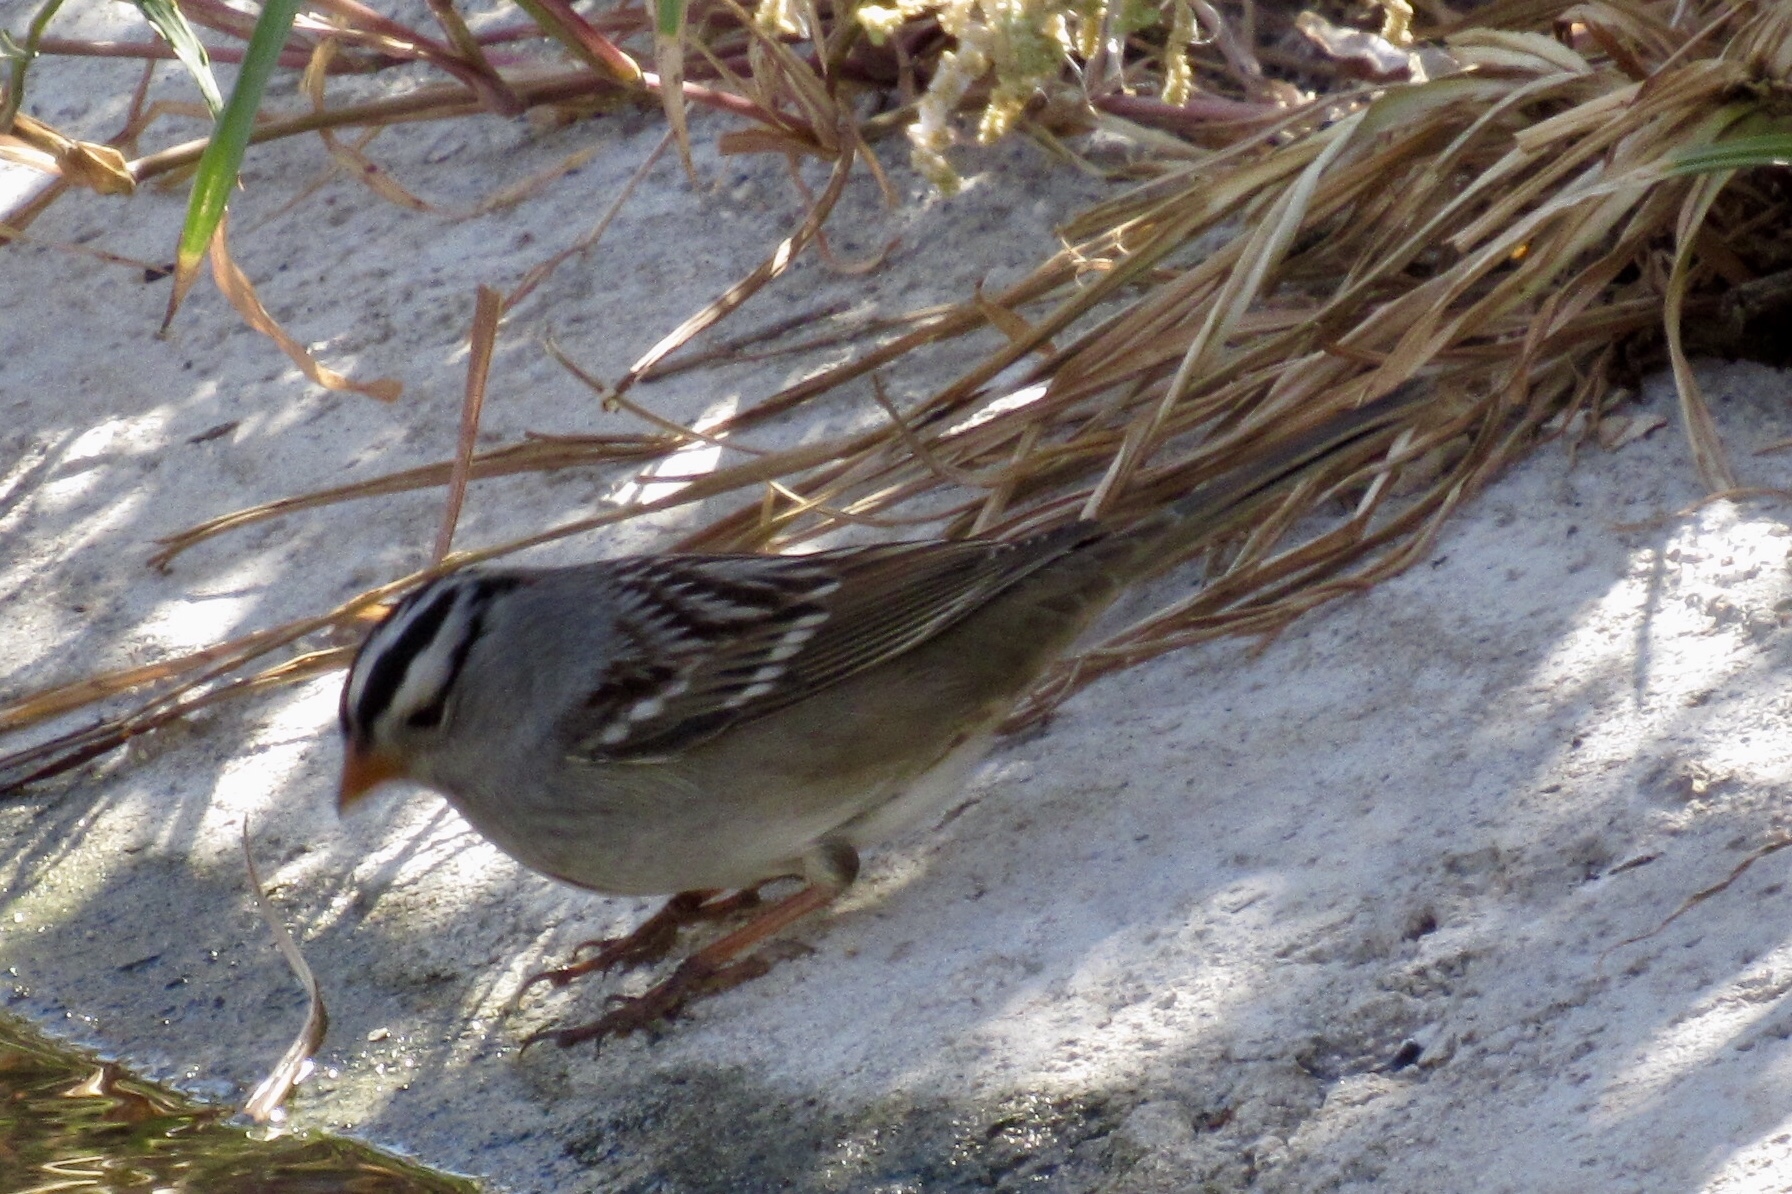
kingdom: Animalia
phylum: Chordata
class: Aves
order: Passeriformes
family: Passerellidae
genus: Zonotrichia
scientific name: Zonotrichia leucophrys
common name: White-crowned sparrow
